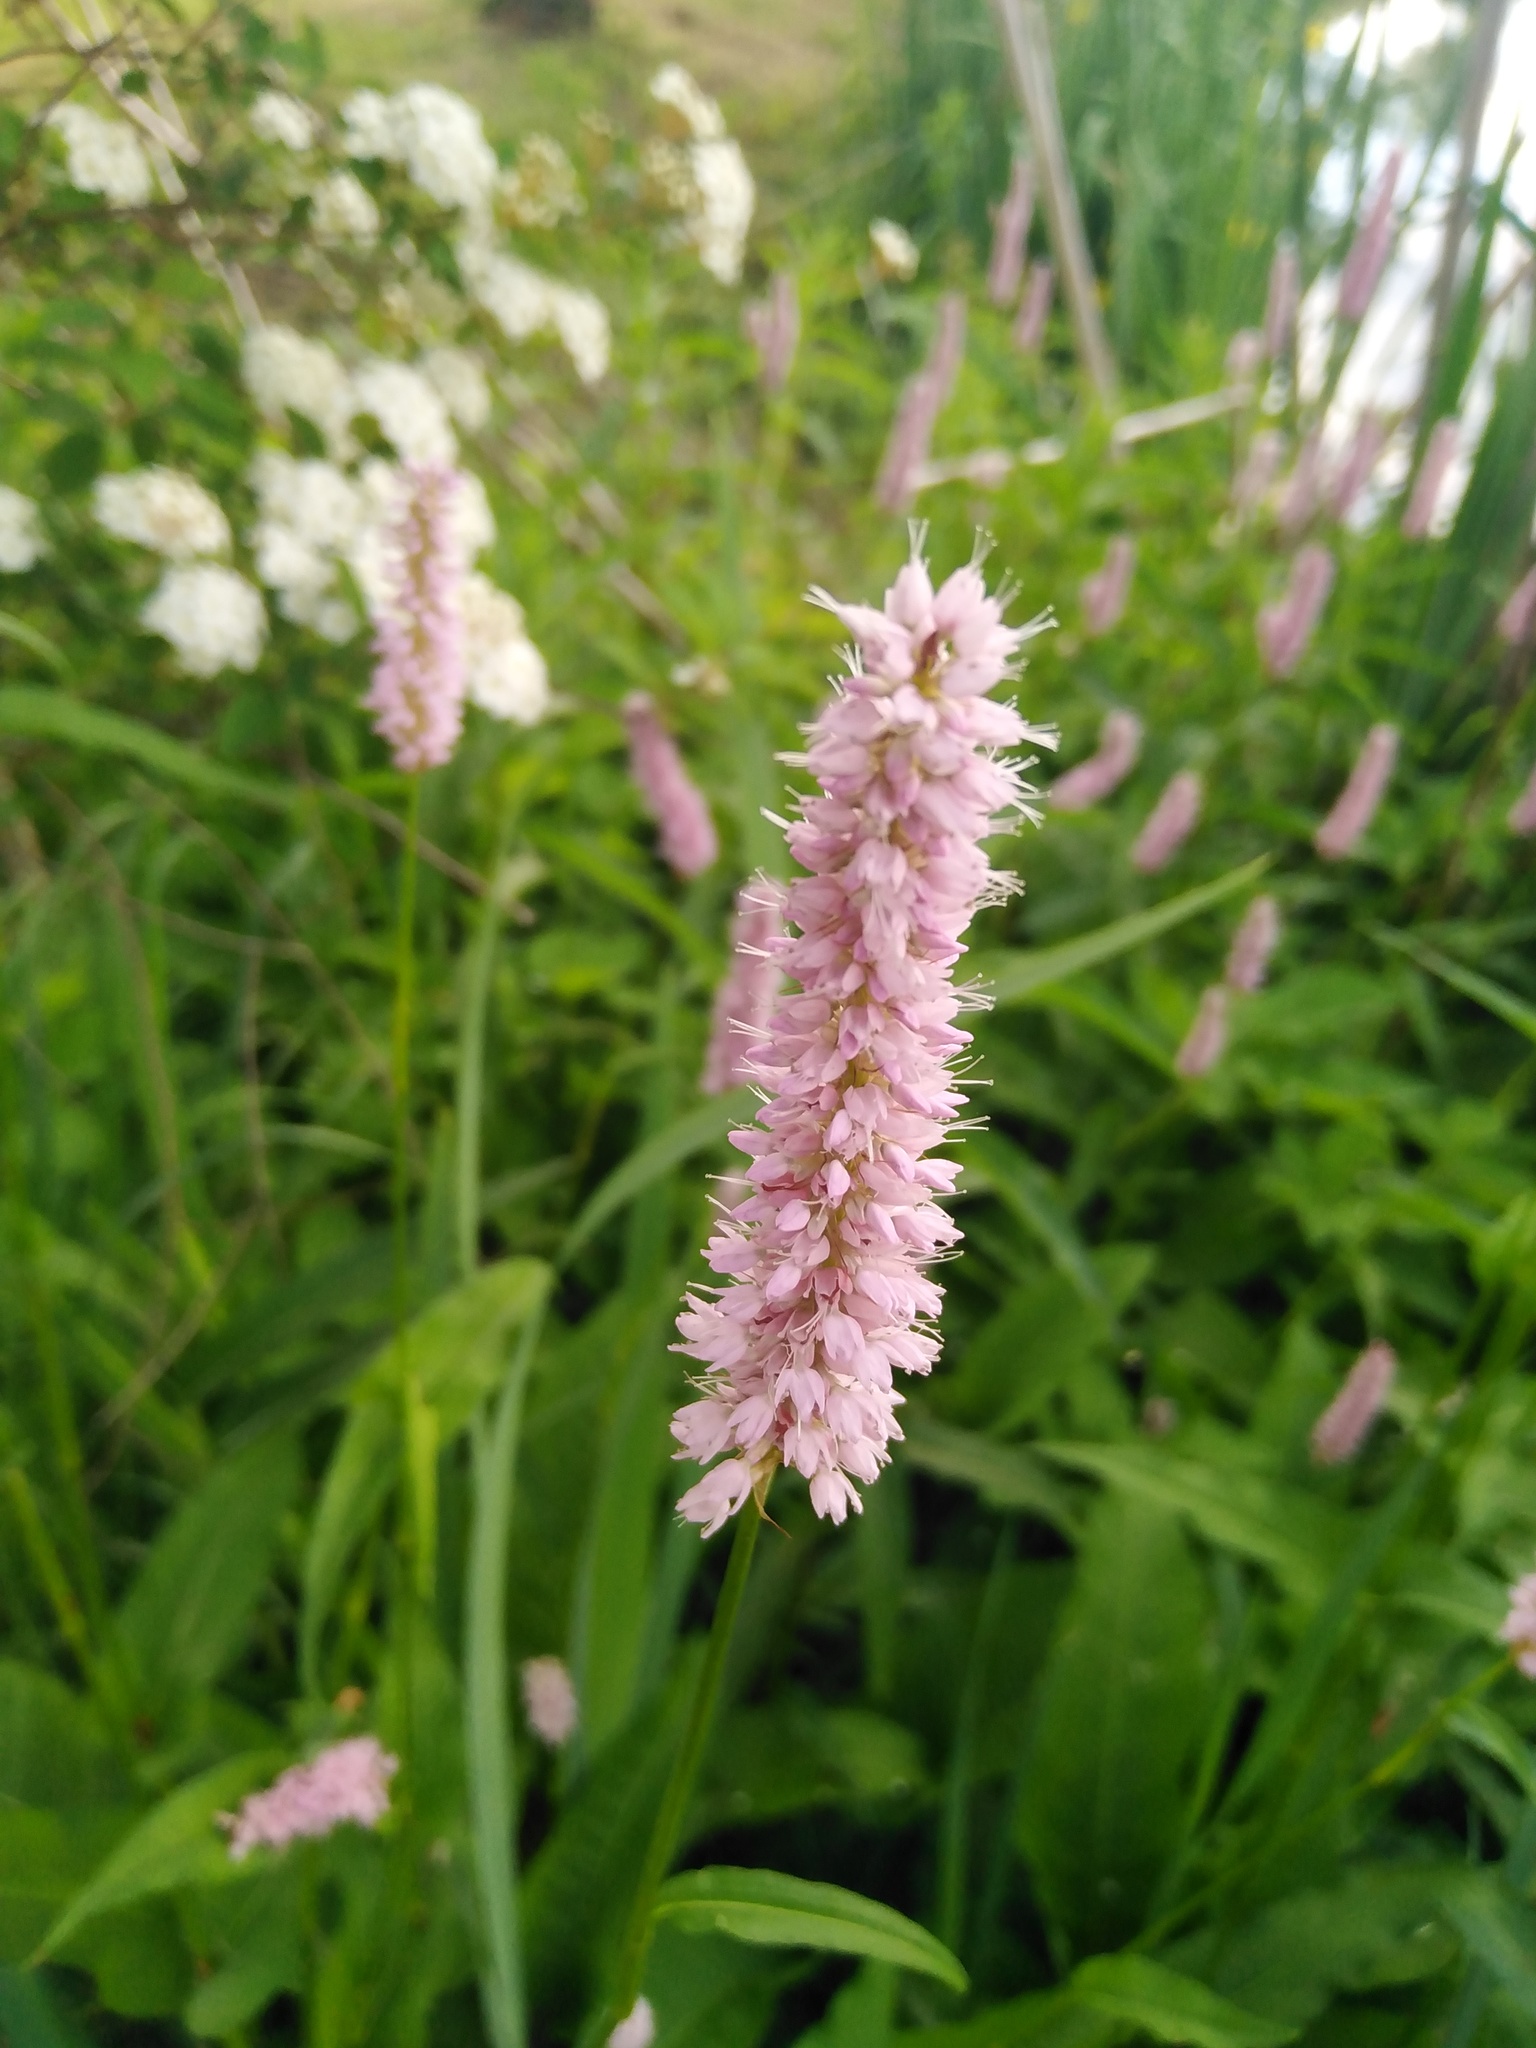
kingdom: Plantae
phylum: Tracheophyta
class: Magnoliopsida
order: Caryophyllales
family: Polygonaceae
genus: Bistorta
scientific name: Bistorta officinalis
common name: Common bistort
